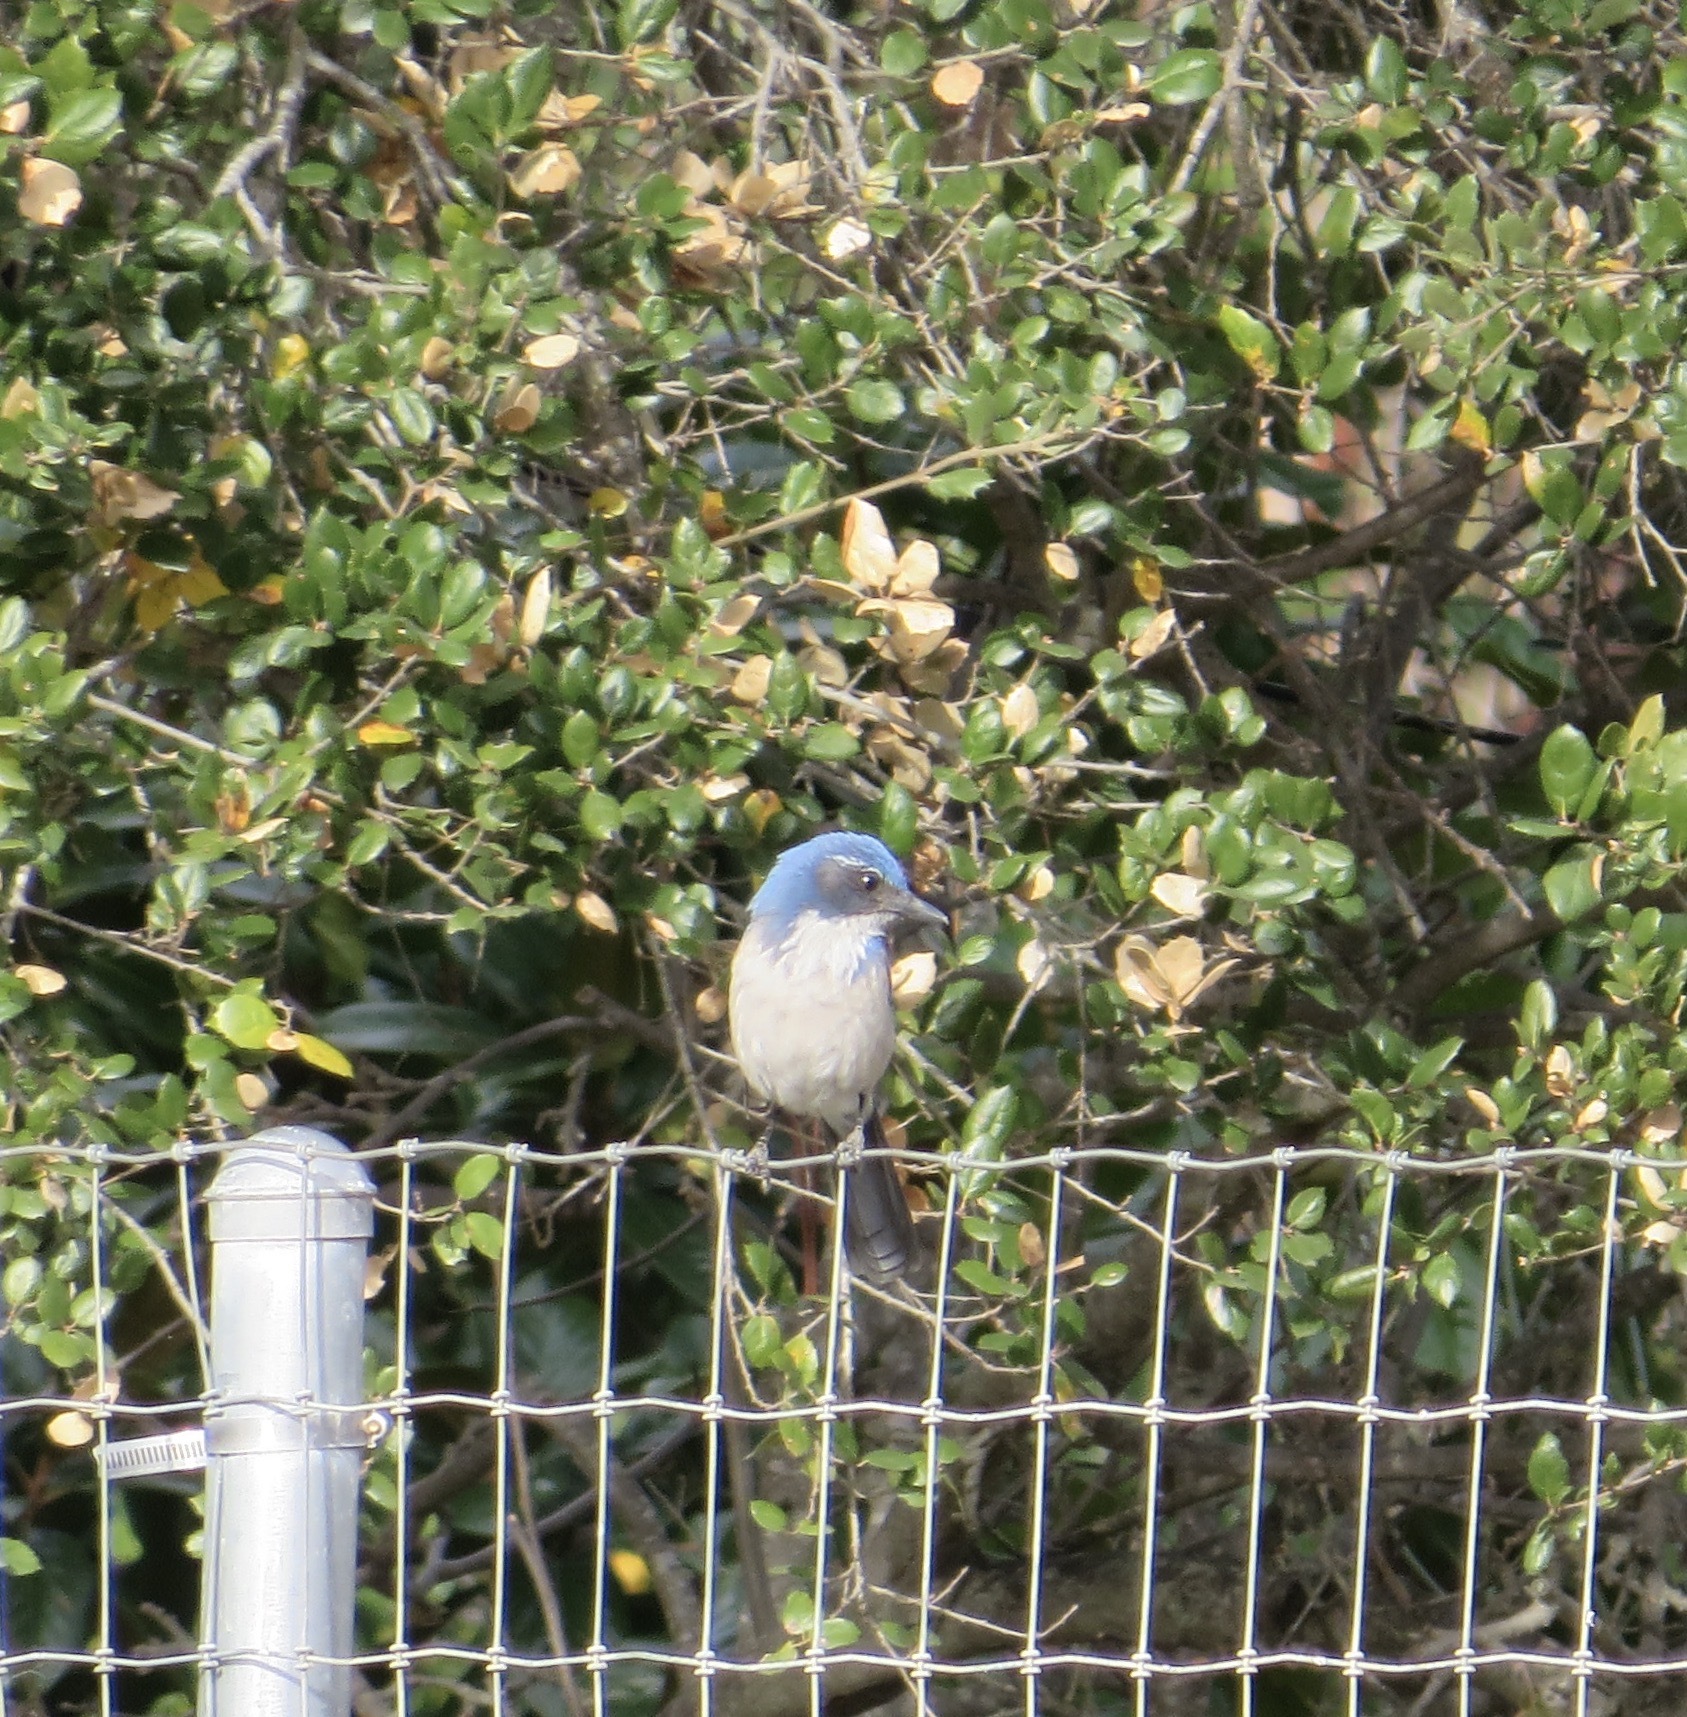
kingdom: Animalia
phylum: Chordata
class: Aves
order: Passeriformes
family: Corvidae
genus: Aphelocoma
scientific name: Aphelocoma californica
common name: California scrub-jay
